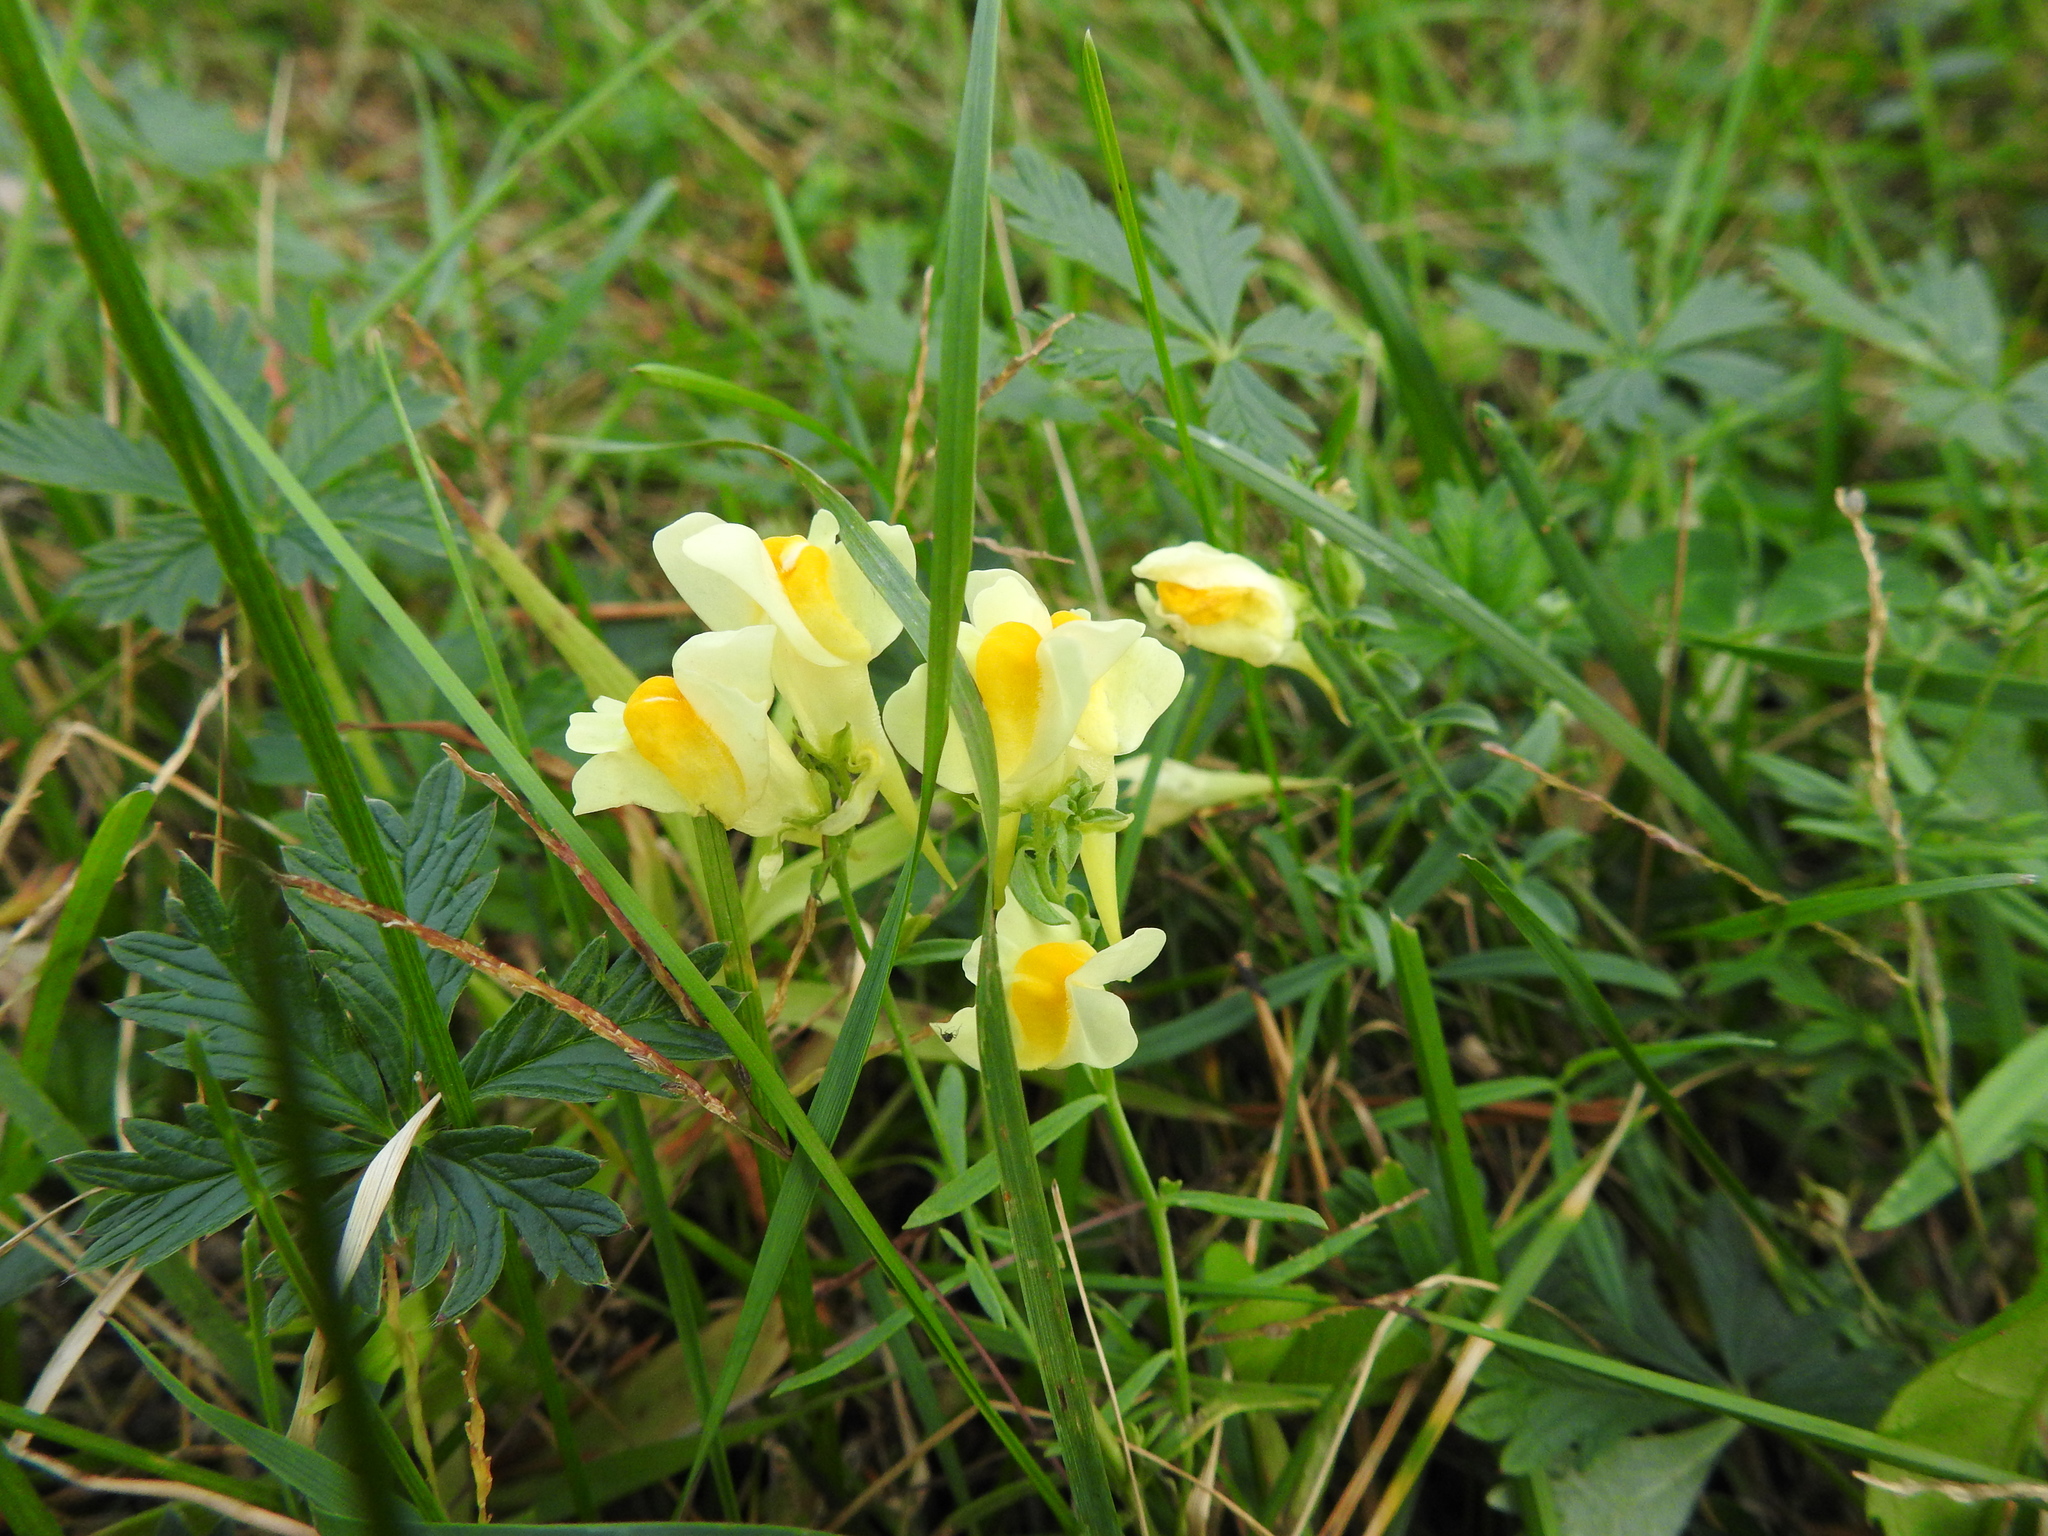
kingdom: Plantae
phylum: Tracheophyta
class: Magnoliopsida
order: Lamiales
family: Plantaginaceae
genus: Linaria
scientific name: Linaria vulgaris
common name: Butter and eggs
